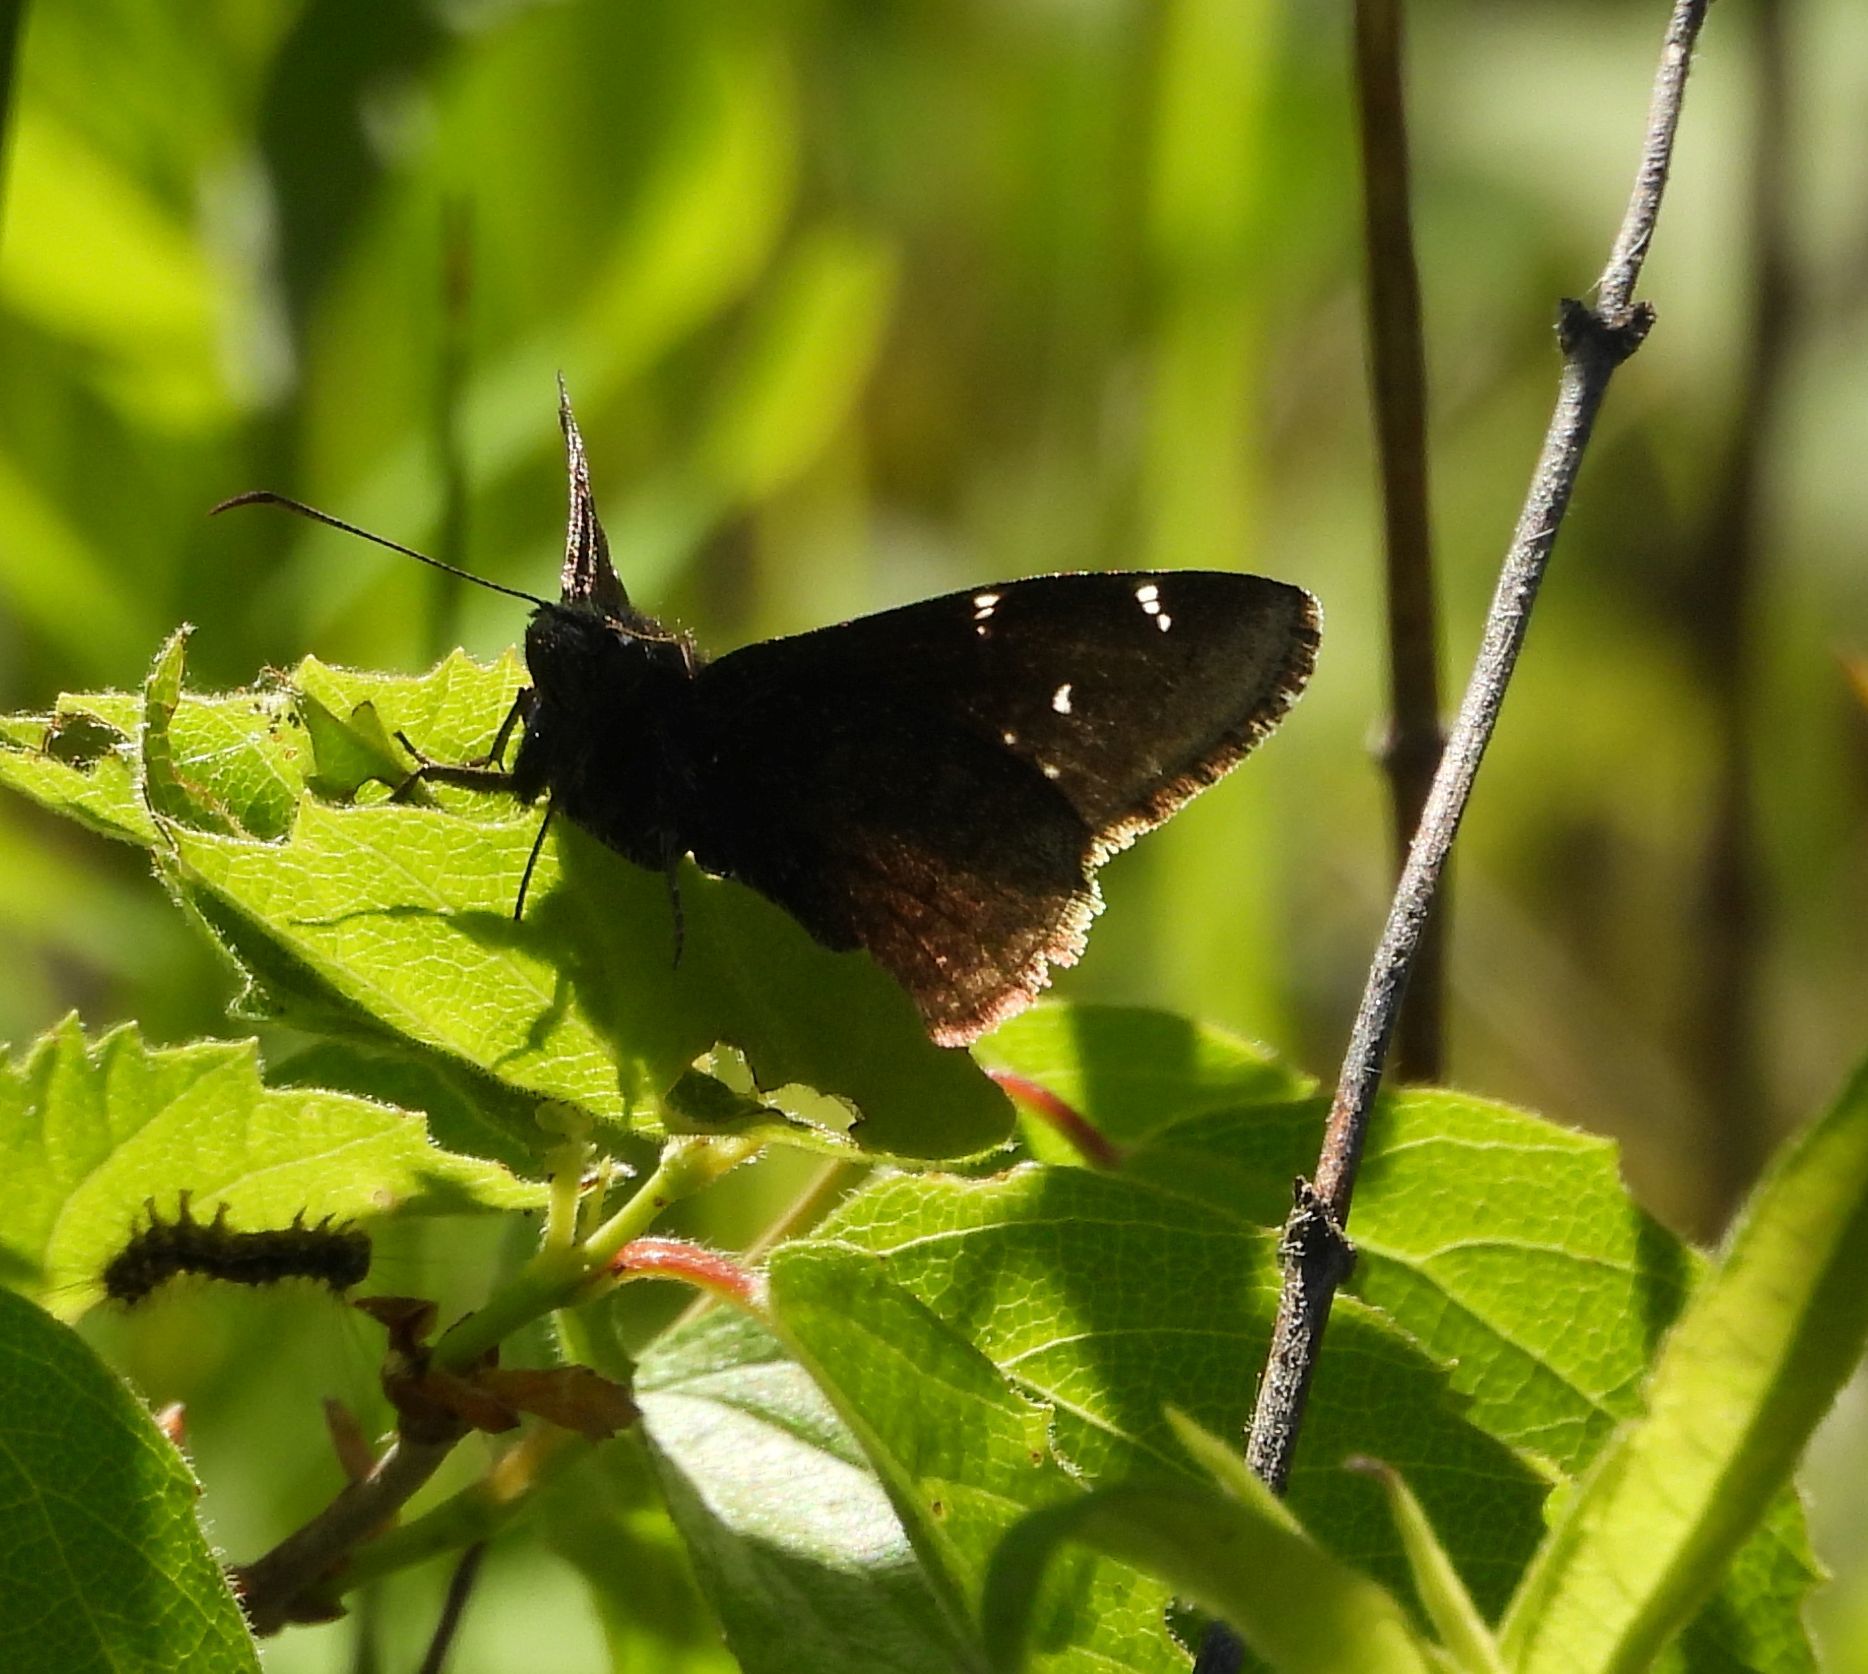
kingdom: Animalia
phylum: Arthropoda
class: Insecta
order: Lepidoptera
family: Hesperiidae
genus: Thorybes
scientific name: Thorybes pylades
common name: Northern cloudywing
